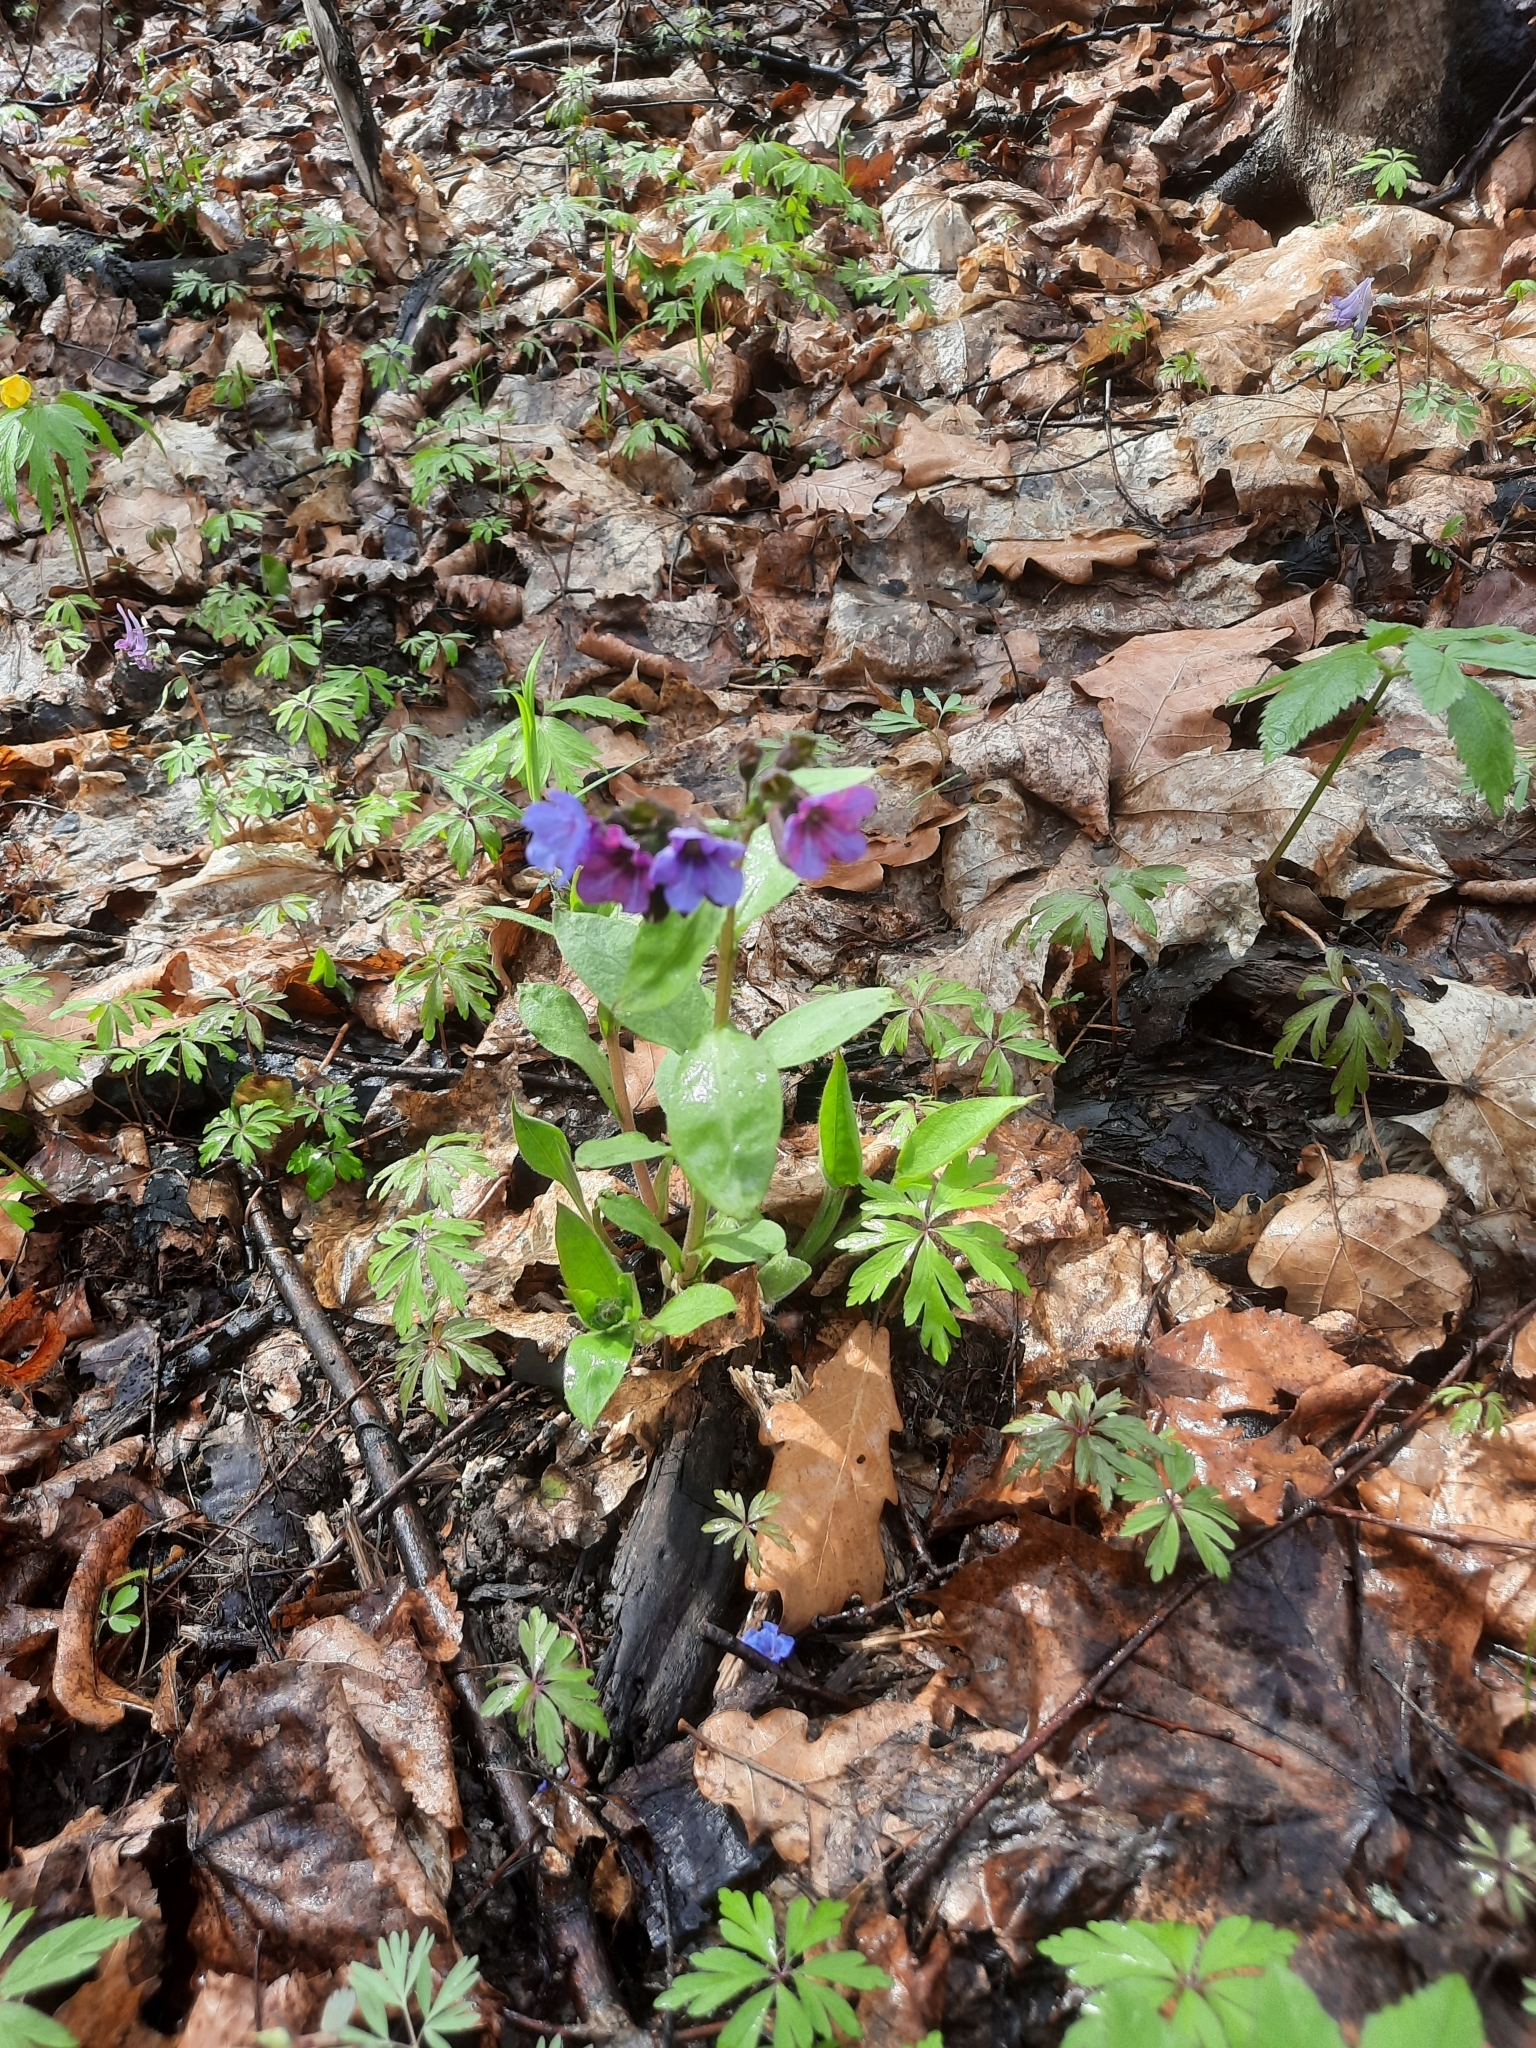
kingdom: Plantae
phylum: Tracheophyta
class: Magnoliopsida
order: Boraginales
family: Boraginaceae
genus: Pulmonaria
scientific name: Pulmonaria obscura
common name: Suffolk lungwort
